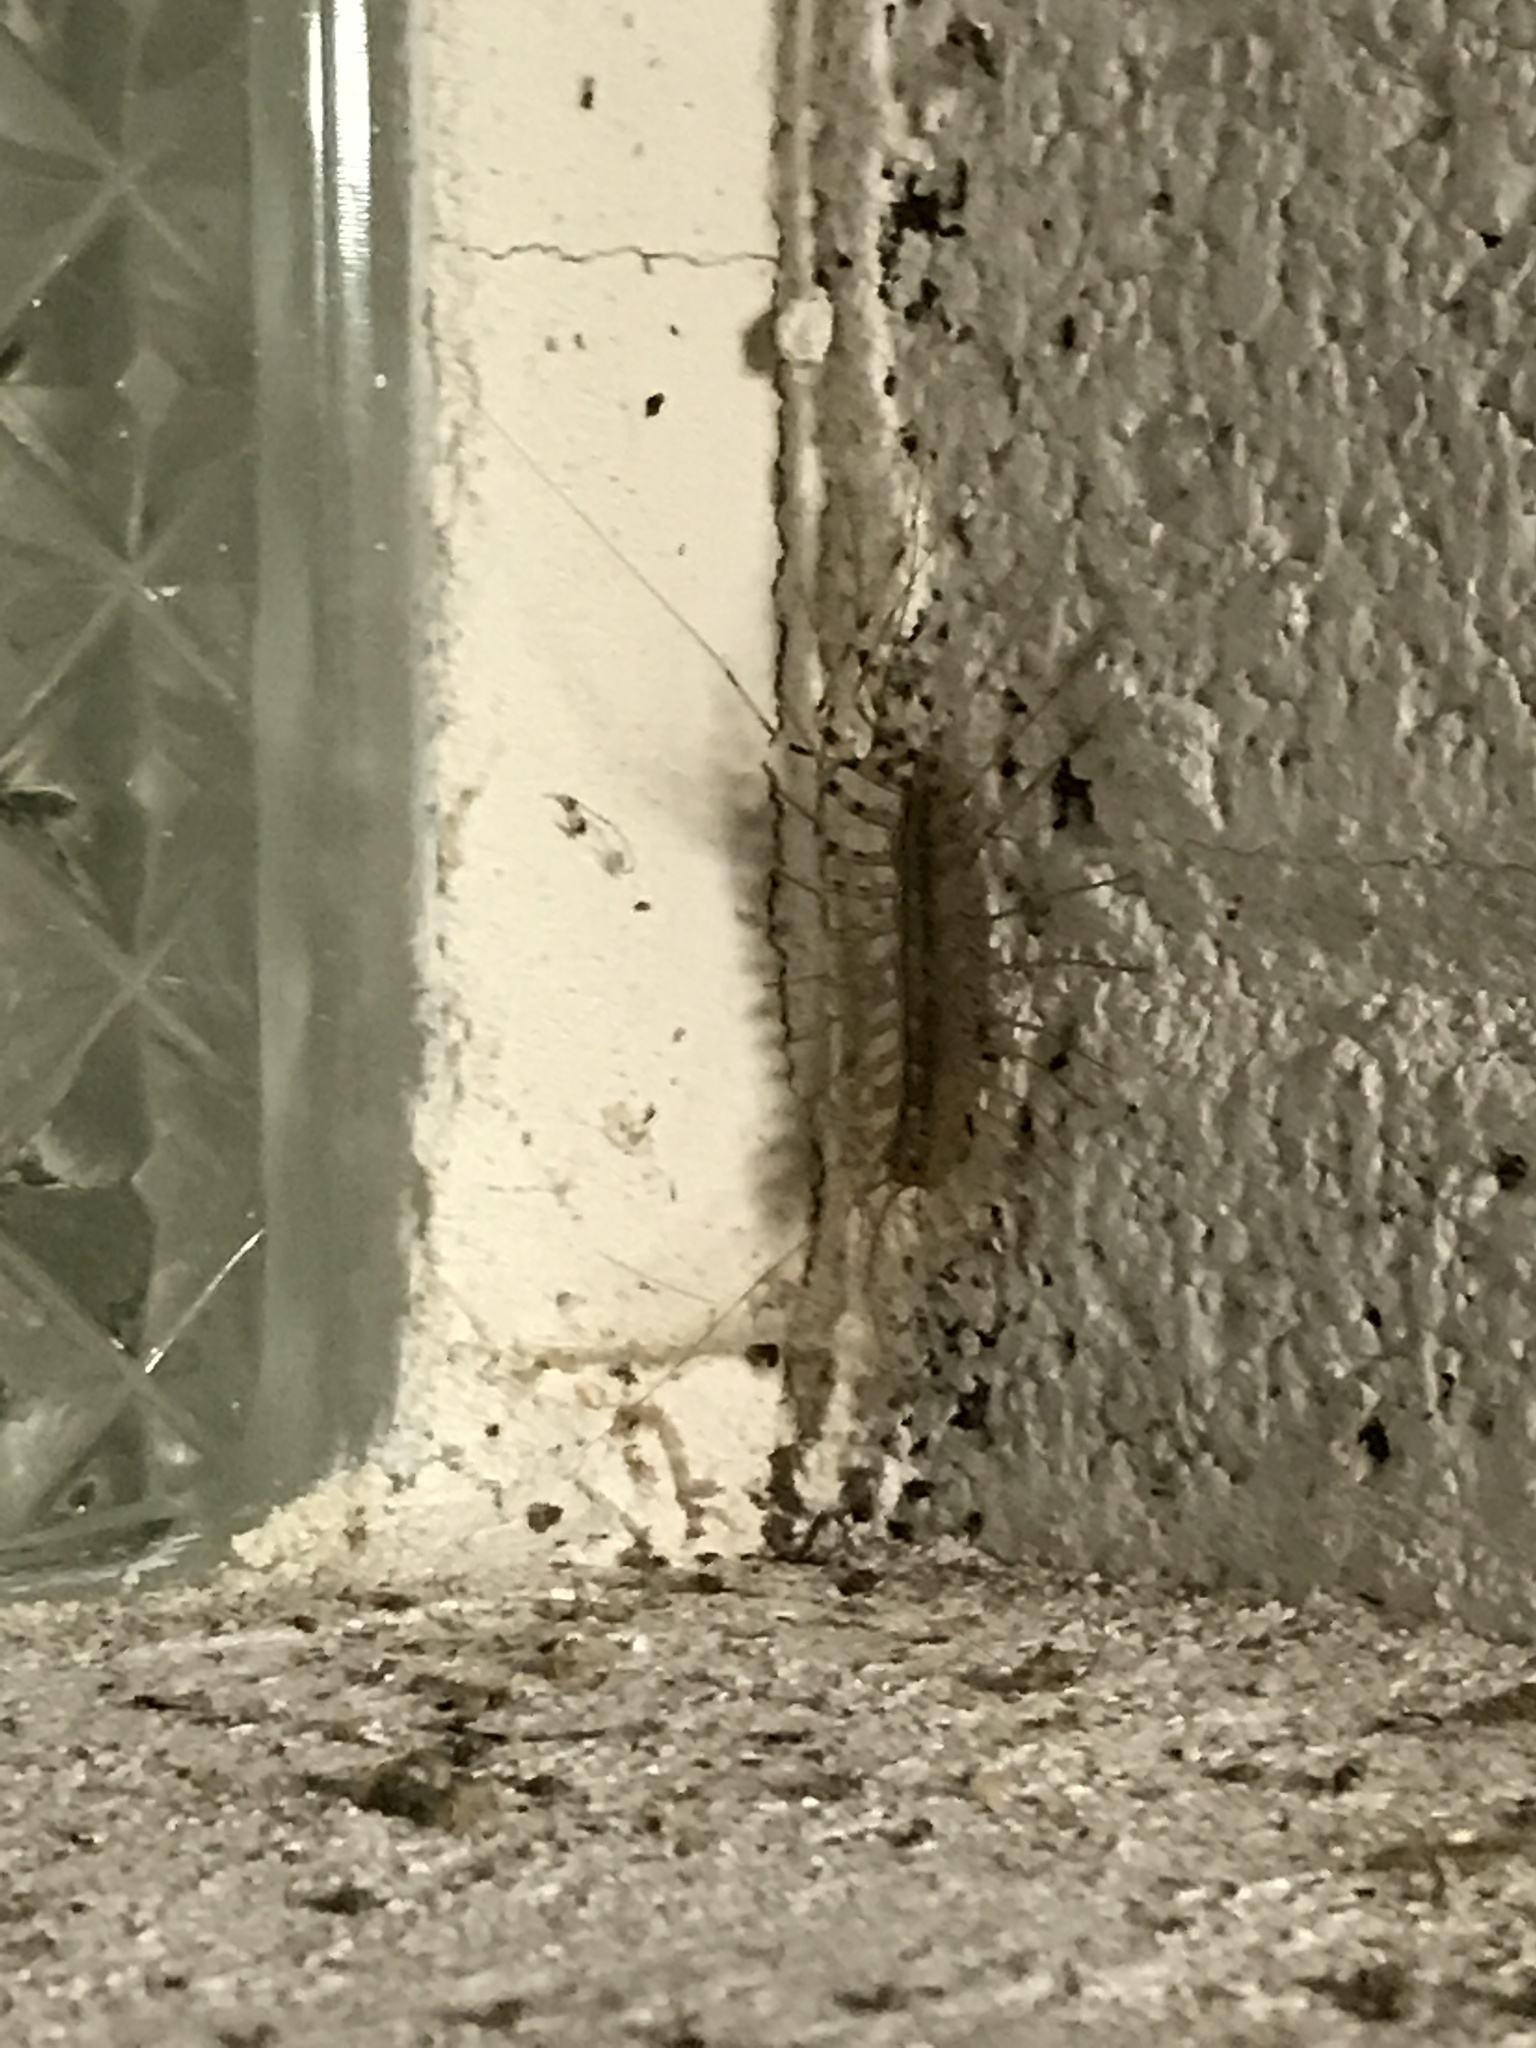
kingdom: Animalia
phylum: Arthropoda
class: Chilopoda
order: Scutigeromorpha
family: Scutigeridae
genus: Scutigera
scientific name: Scutigera coleoptrata
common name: House centipede
